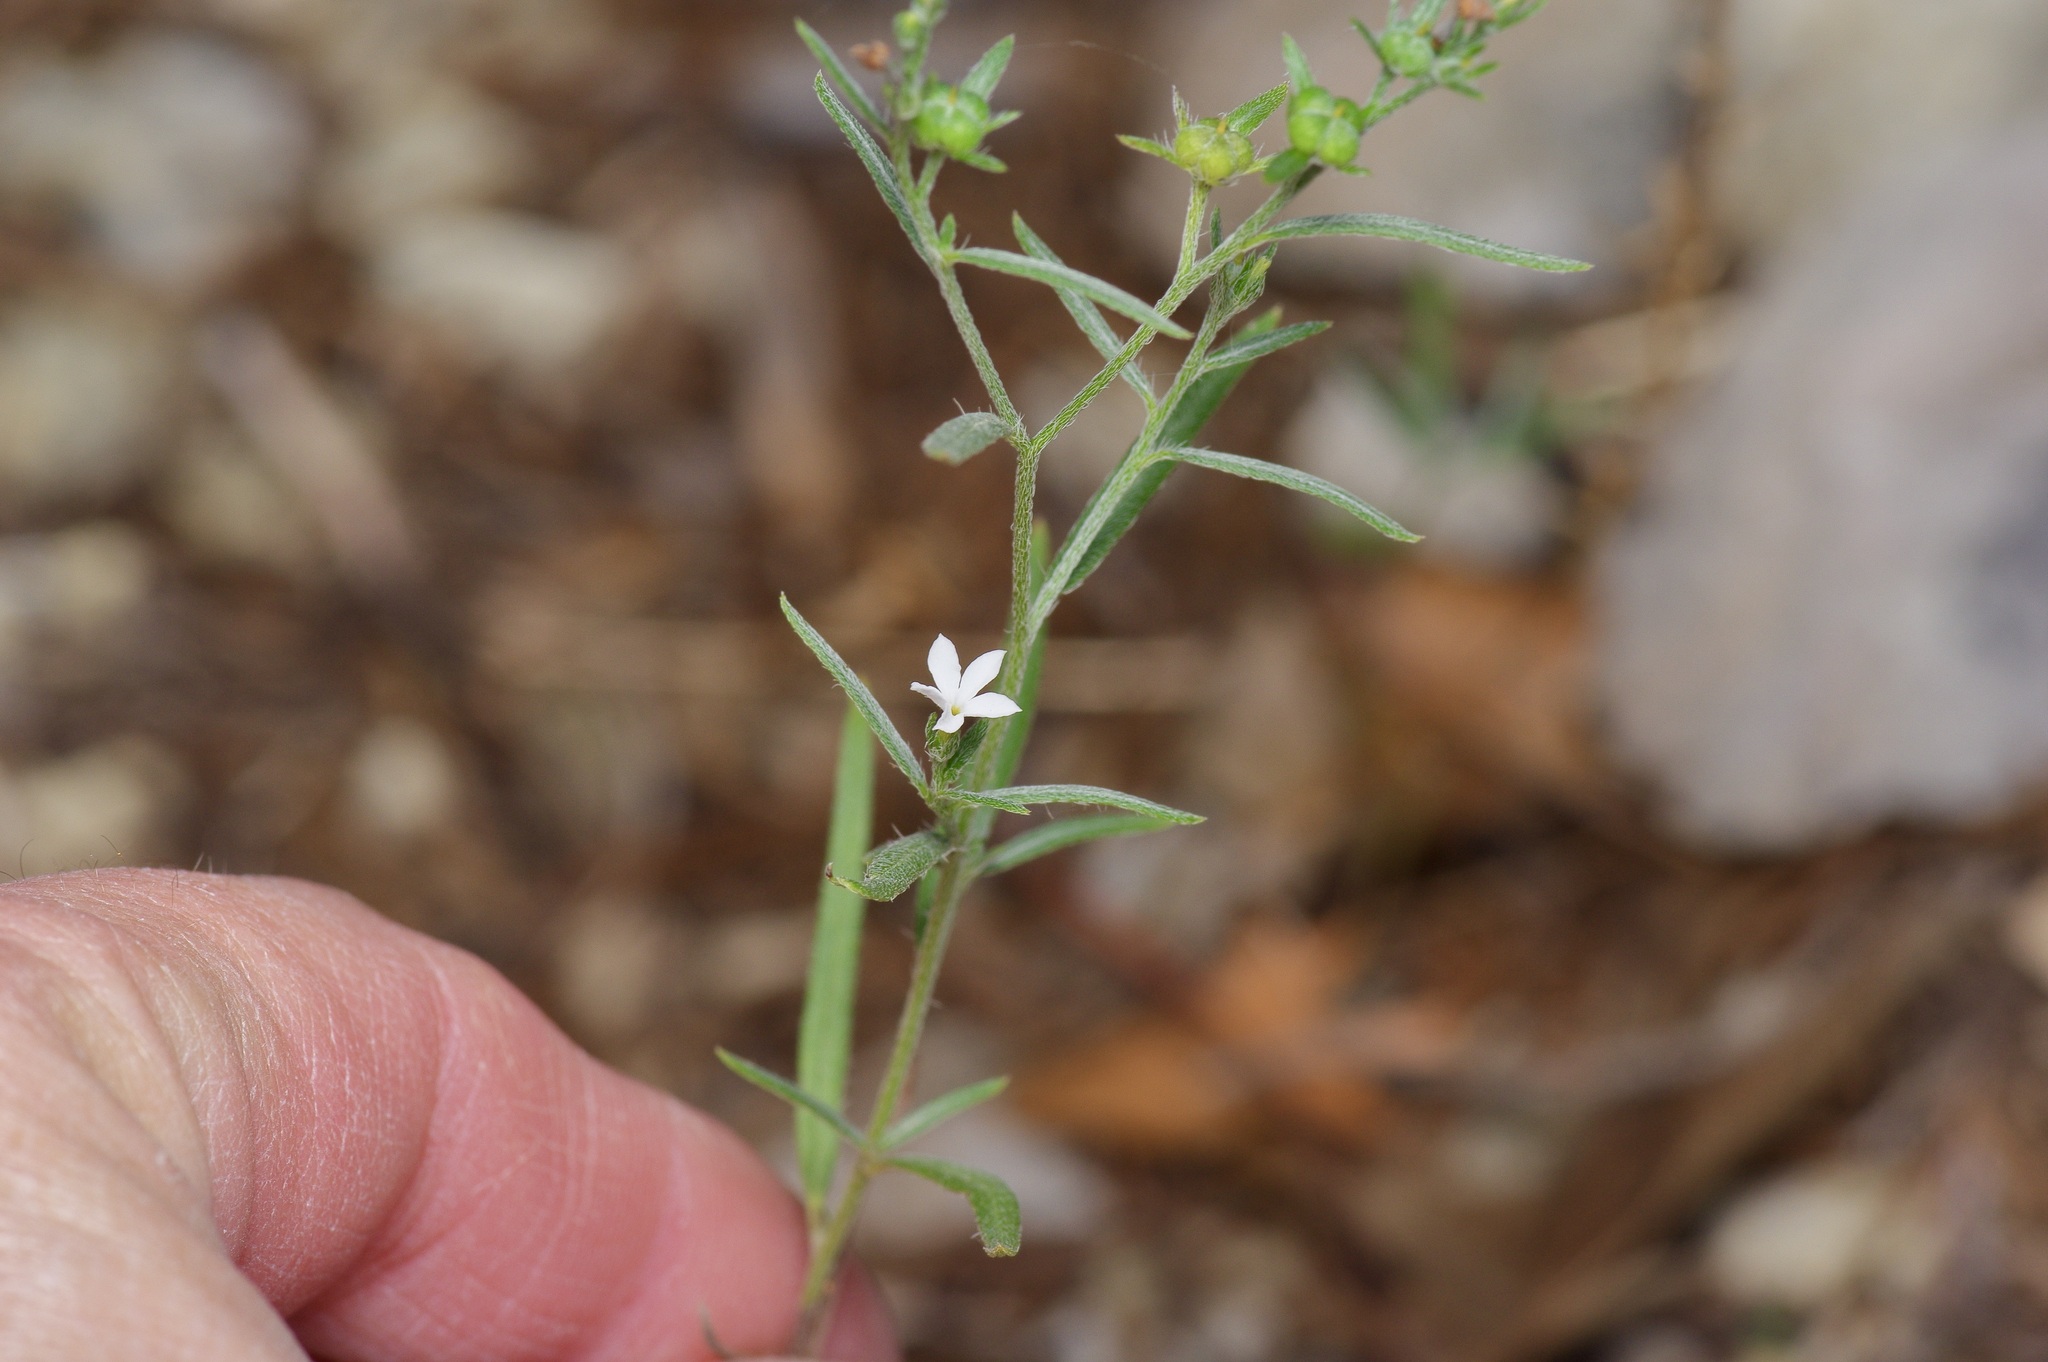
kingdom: Plantae
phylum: Tracheophyta
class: Magnoliopsida
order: Boraginales
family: Heliotropiaceae
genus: Euploca
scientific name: Euploca tenella
